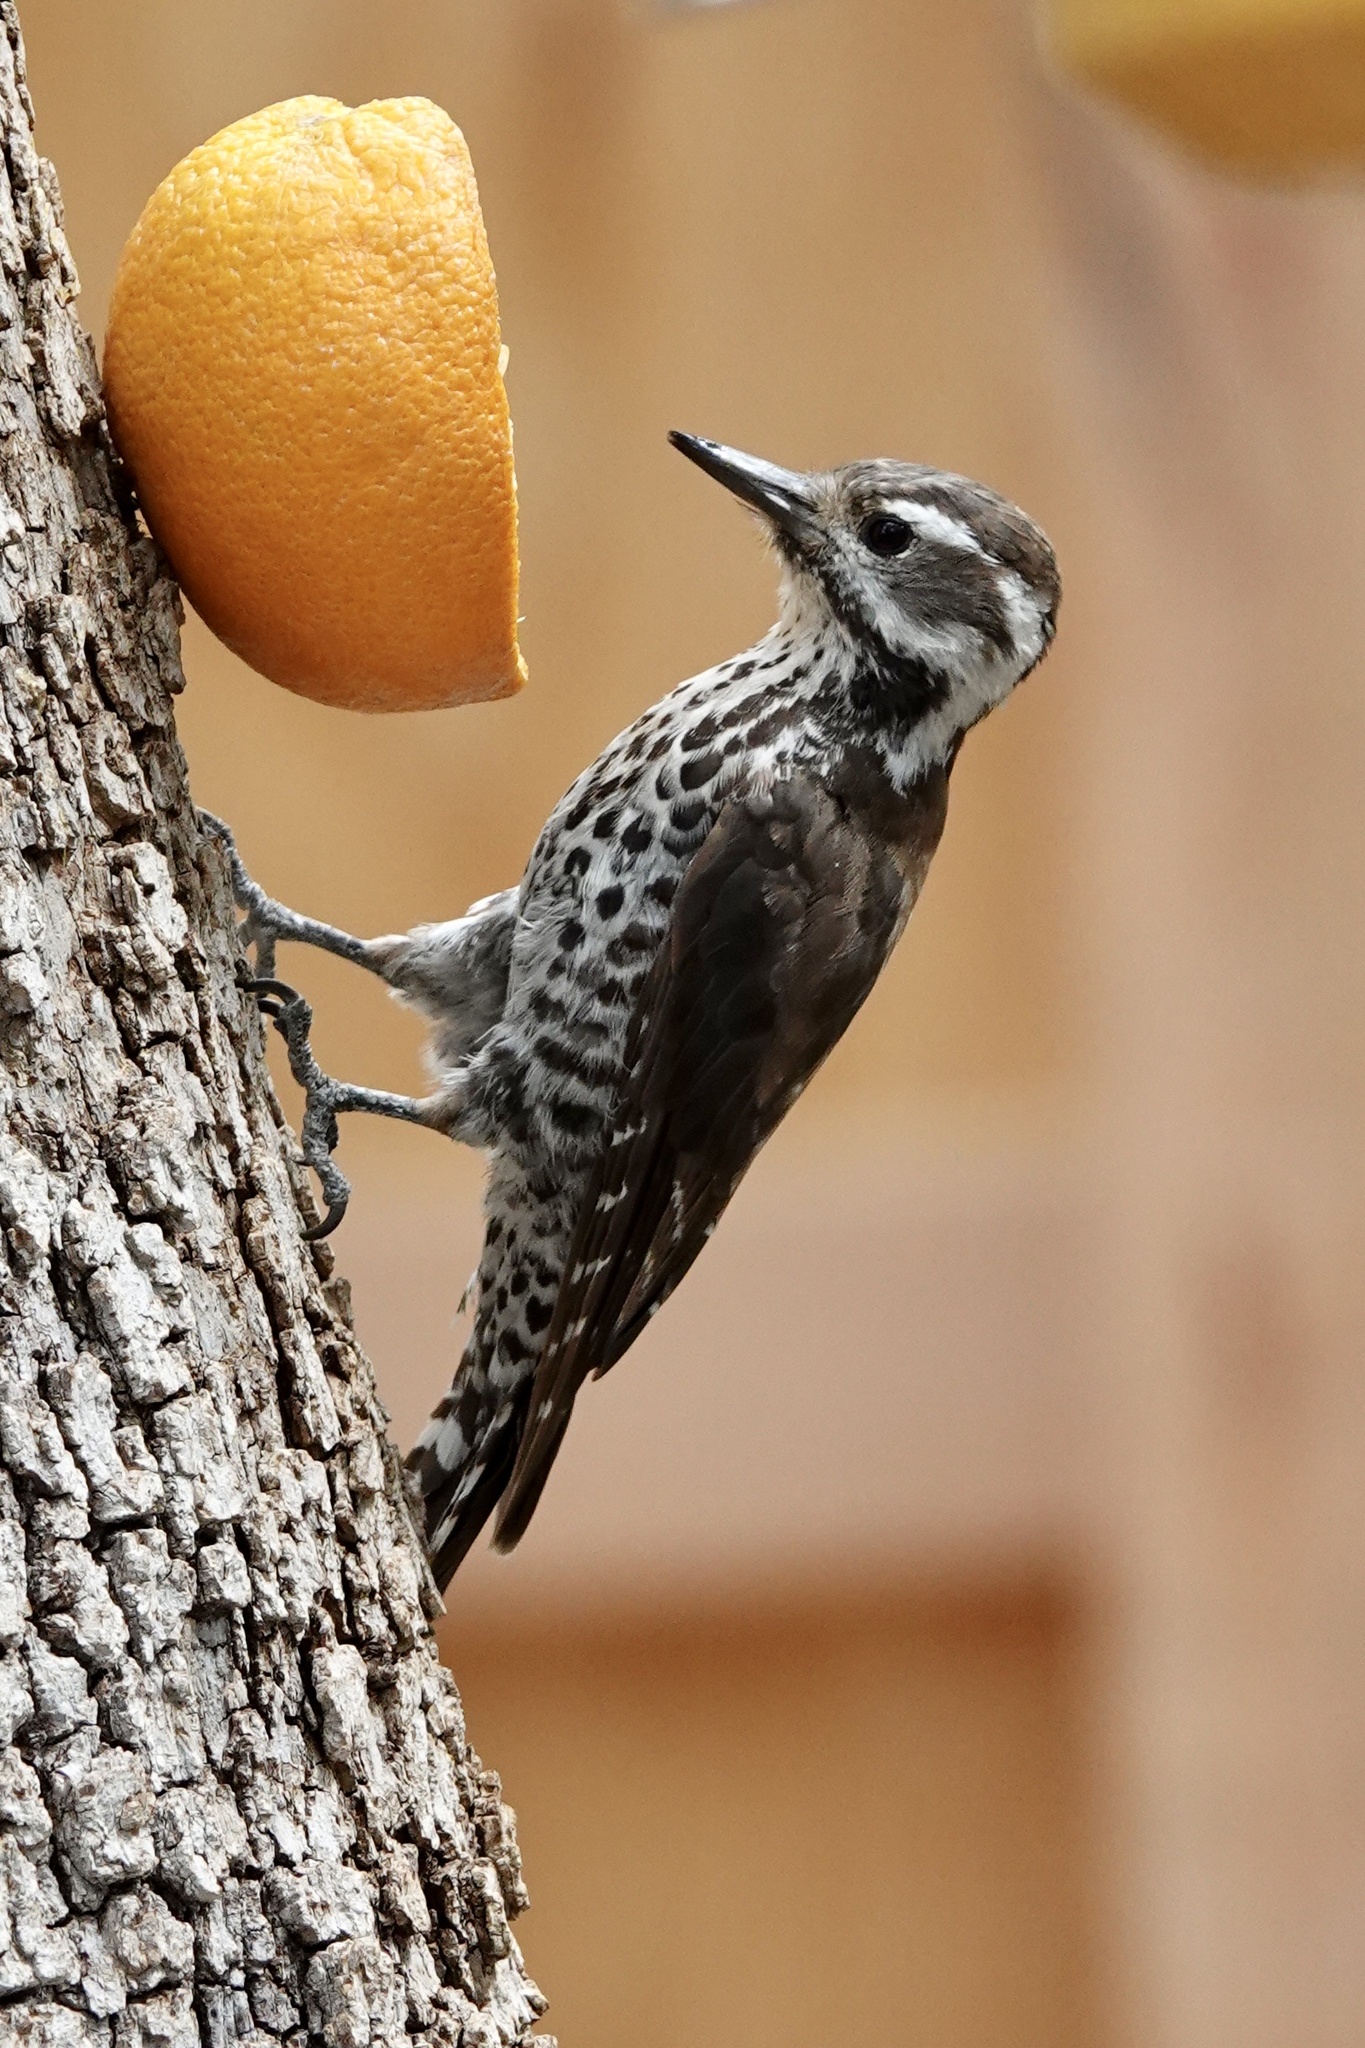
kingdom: Animalia
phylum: Chordata
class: Aves
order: Piciformes
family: Picidae
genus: Leuconotopicus
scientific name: Leuconotopicus arizonae
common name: Arizona woodpecker
